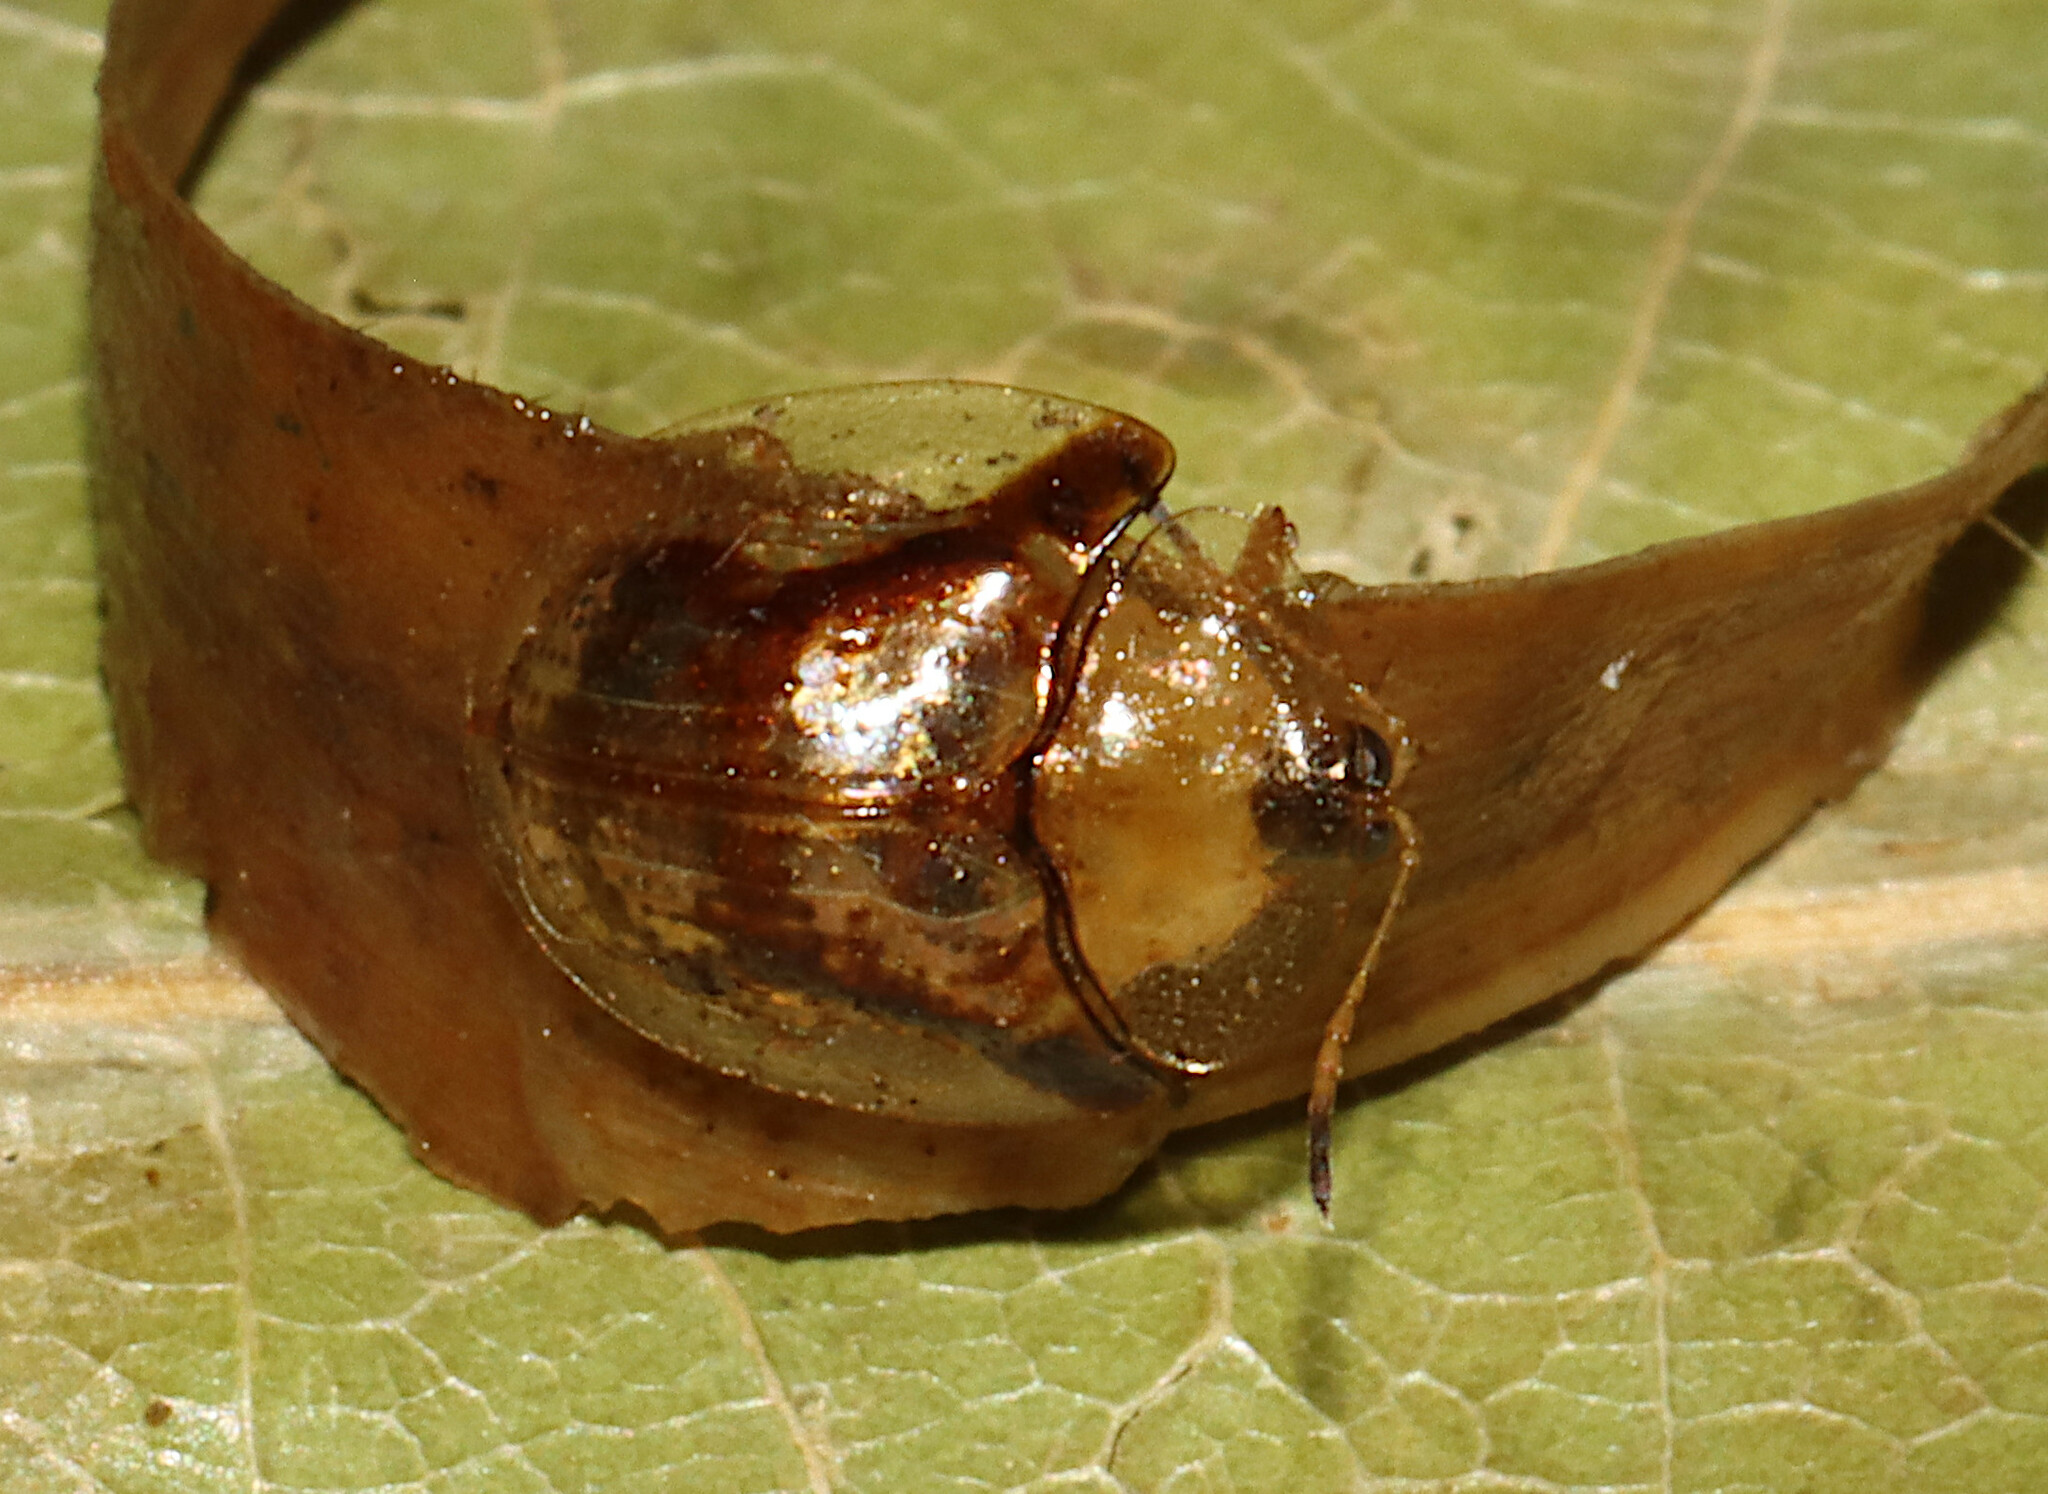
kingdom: Animalia
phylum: Arthropoda
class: Insecta
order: Coleoptera
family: Chrysomelidae
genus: Deloyala
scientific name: Deloyala guttata
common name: Mottled tortoise beetle
